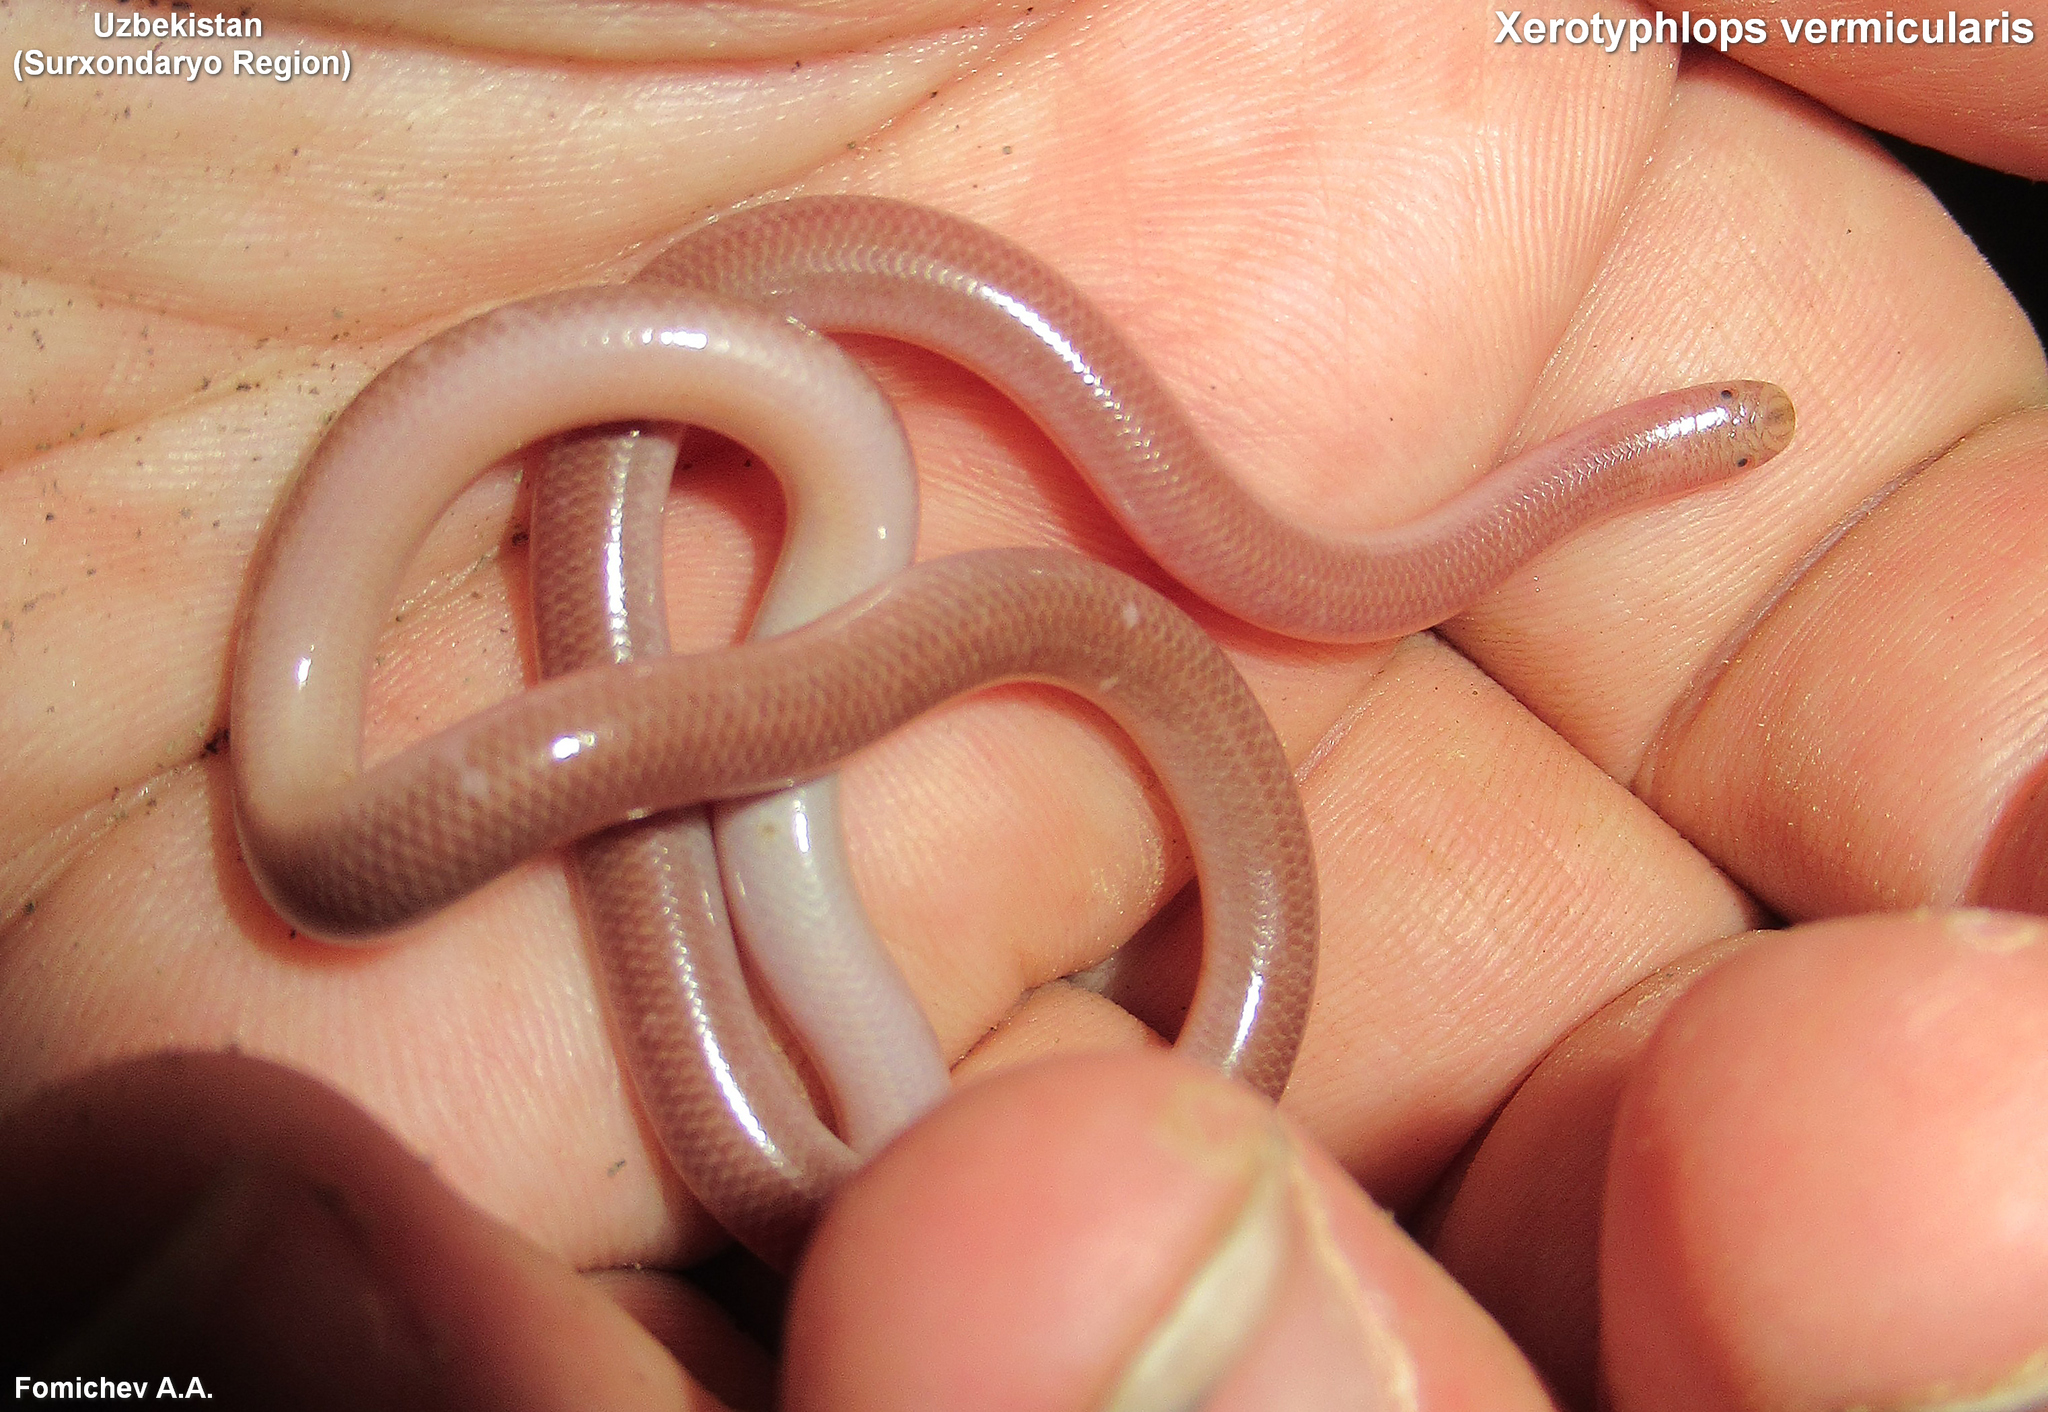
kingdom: Animalia
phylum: Chordata
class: Squamata
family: Typhlopidae
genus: Xerotyphlops
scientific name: Xerotyphlops vermicularis
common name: Eurasian blind snake
